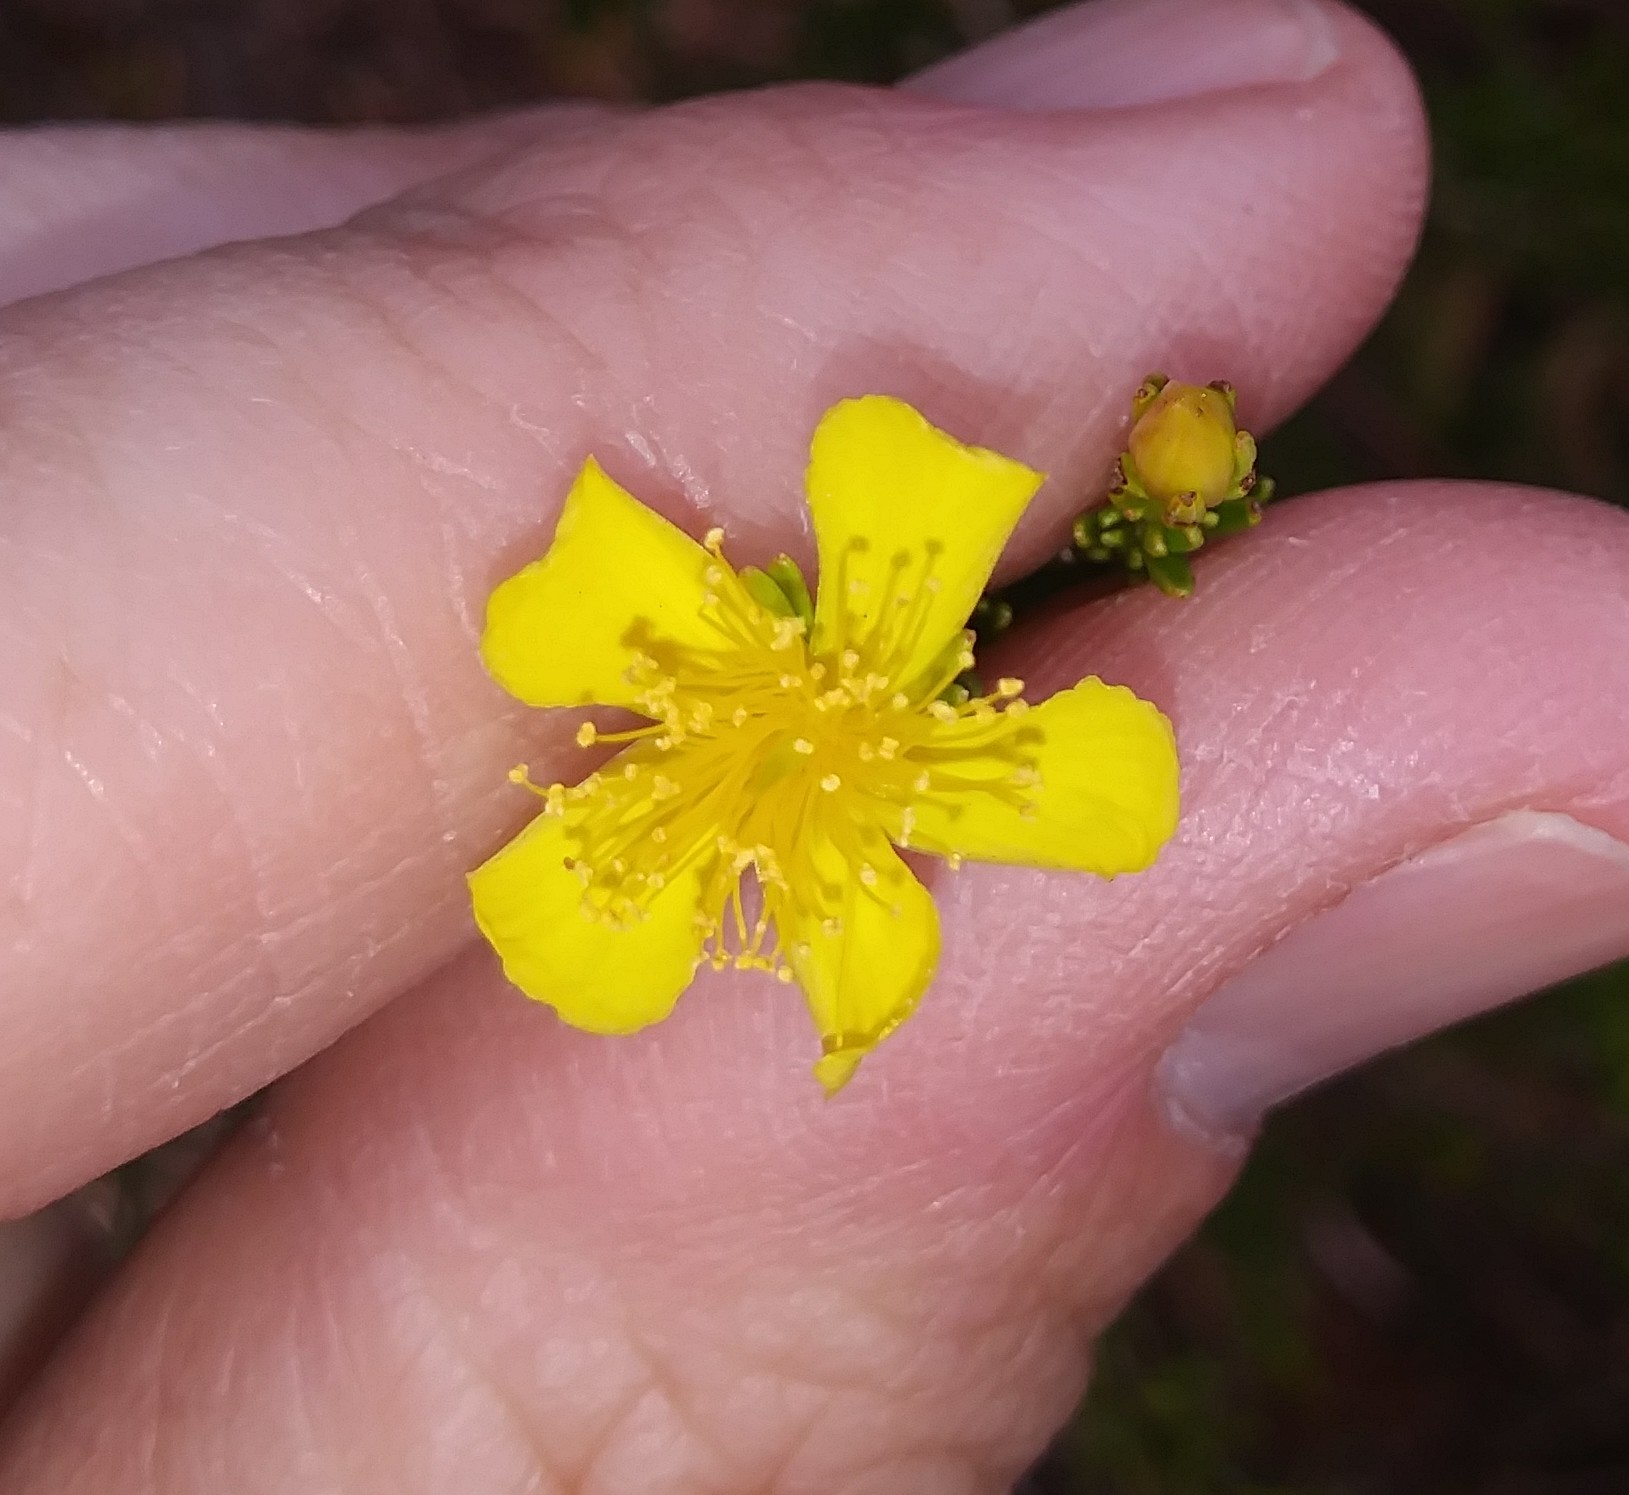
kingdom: Plantae
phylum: Tracheophyta
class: Magnoliopsida
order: Malpighiales
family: Hypericaceae
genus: Hypericum
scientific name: Hypericum tenuifolium
